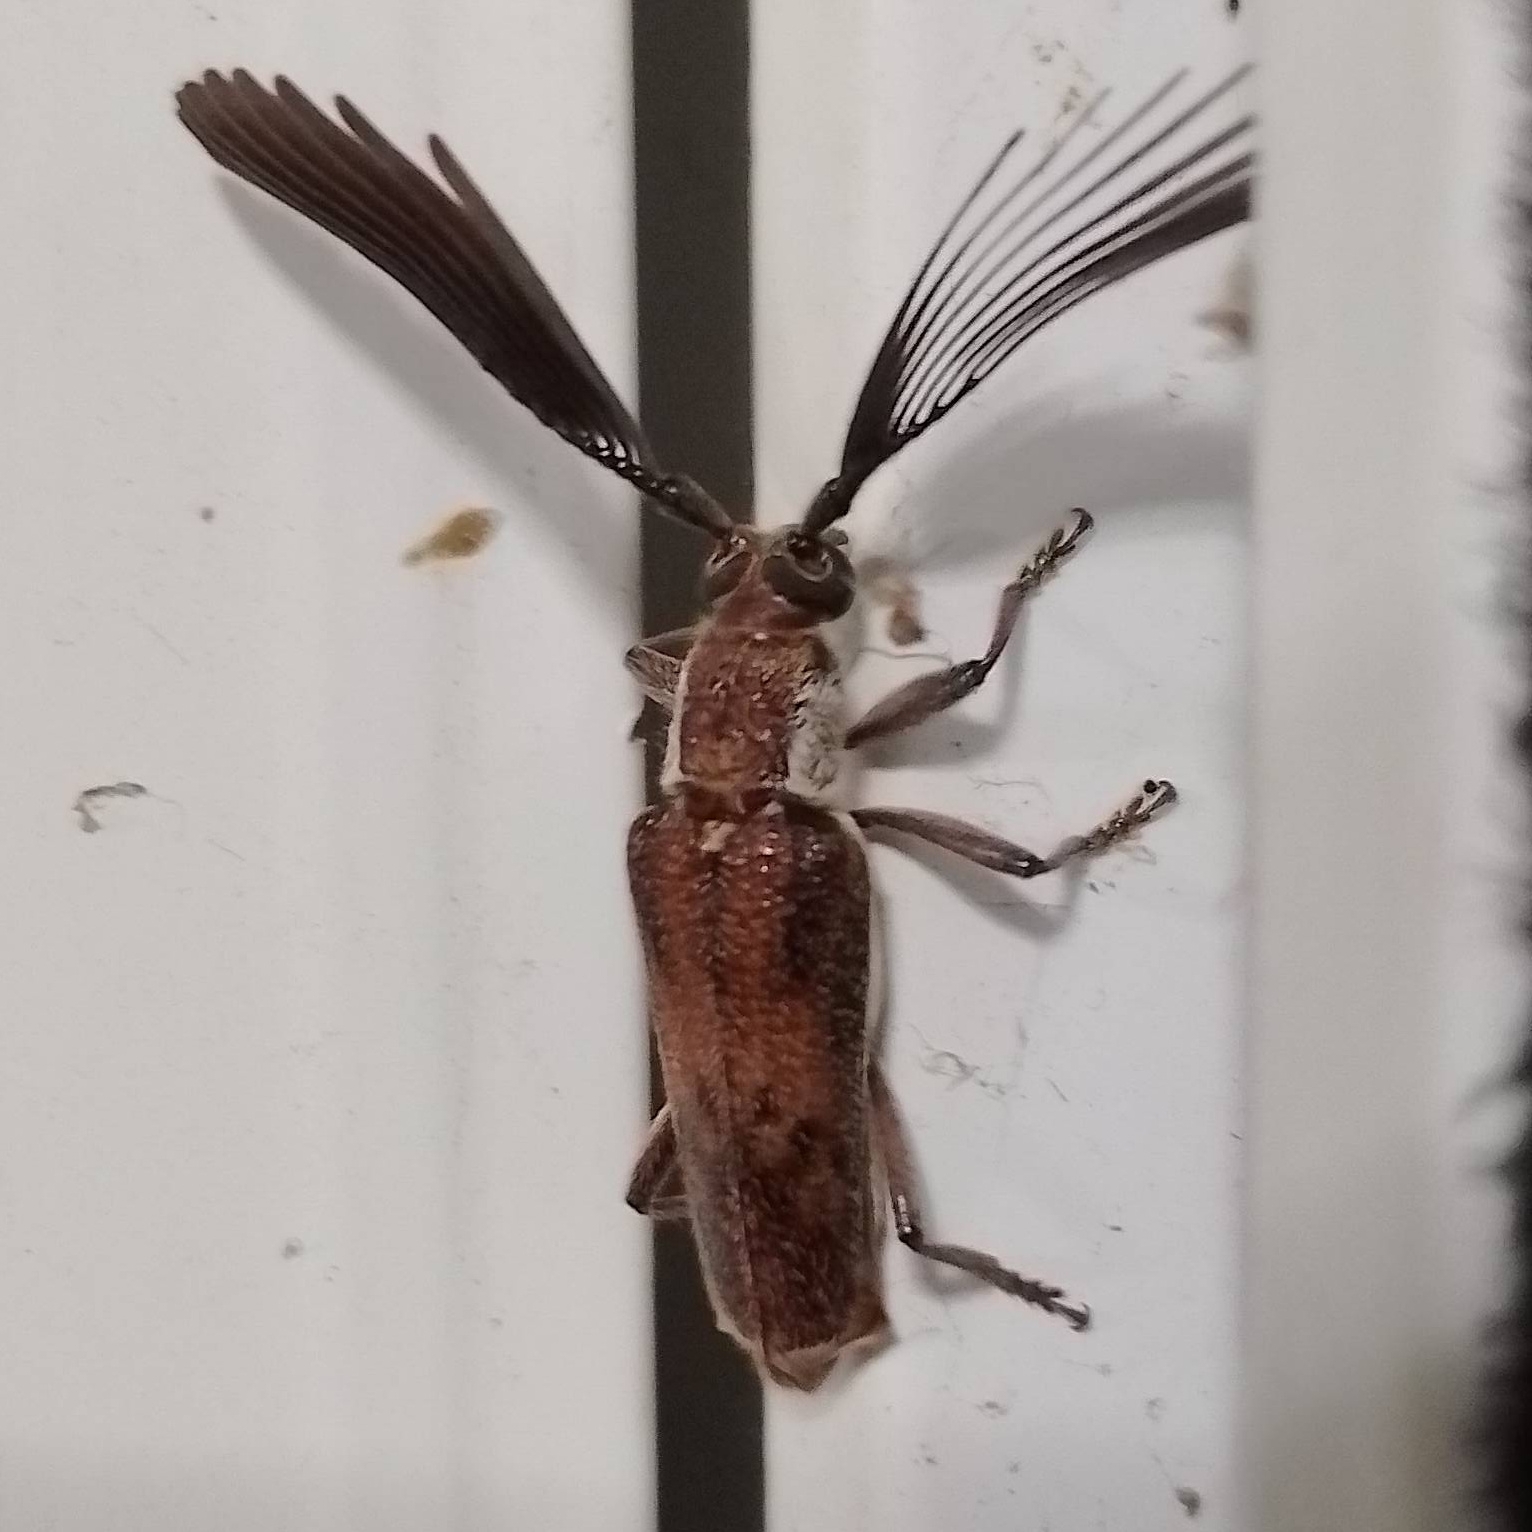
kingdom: Animalia
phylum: Arthropoda
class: Insecta
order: Coleoptera
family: Cerambycidae
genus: Piesarthrius
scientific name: Piesarthrius bleeserae
